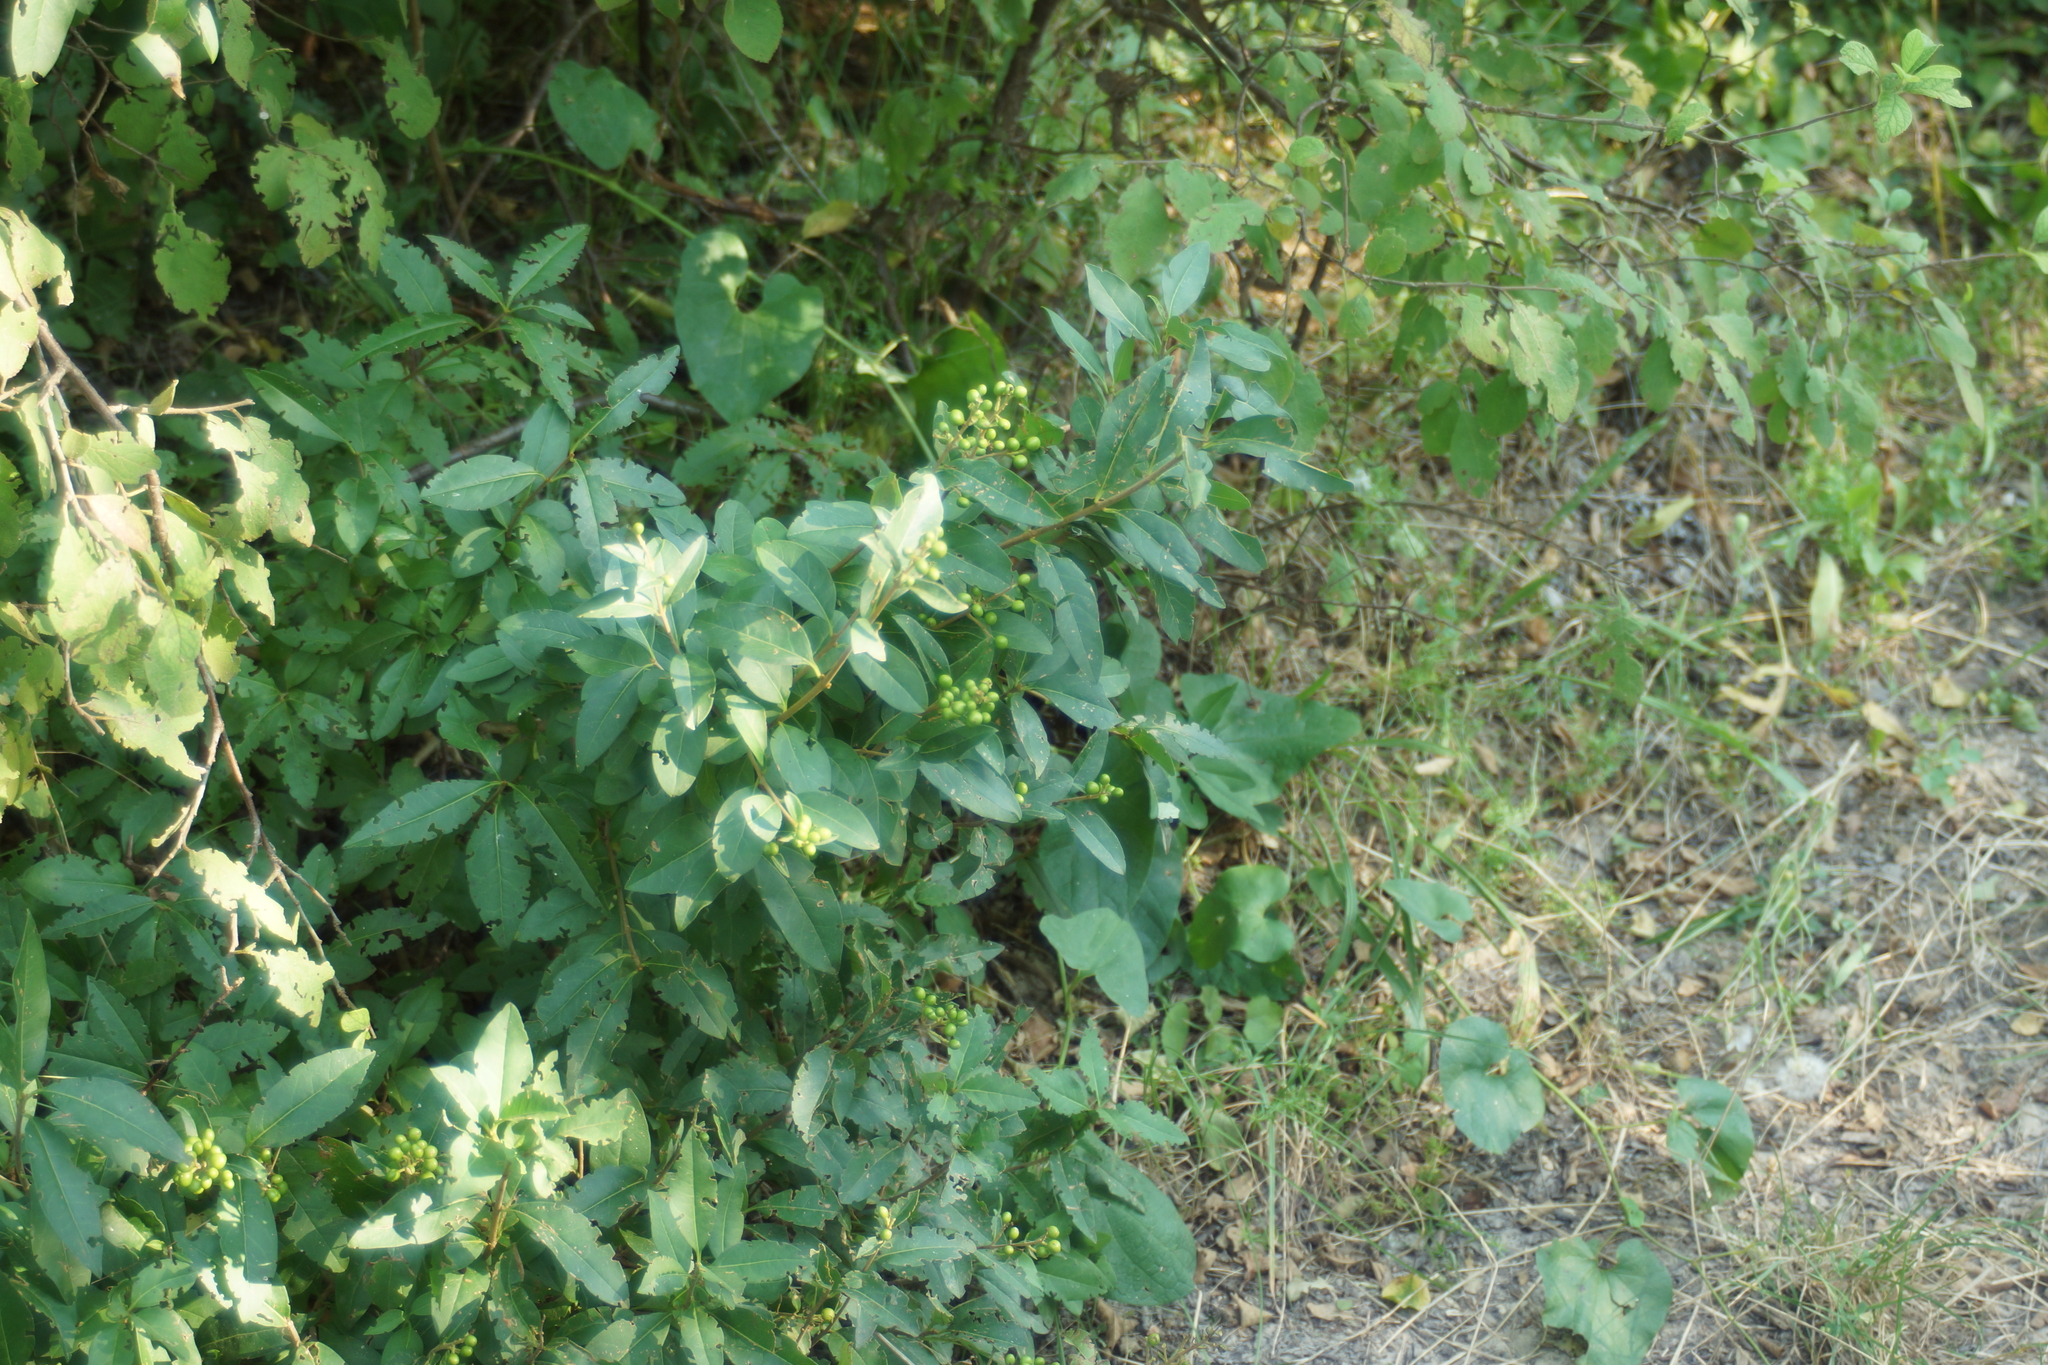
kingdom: Plantae
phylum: Tracheophyta
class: Magnoliopsida
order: Lamiales
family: Oleaceae
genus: Ligustrum
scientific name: Ligustrum vulgare
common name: Wild privet
